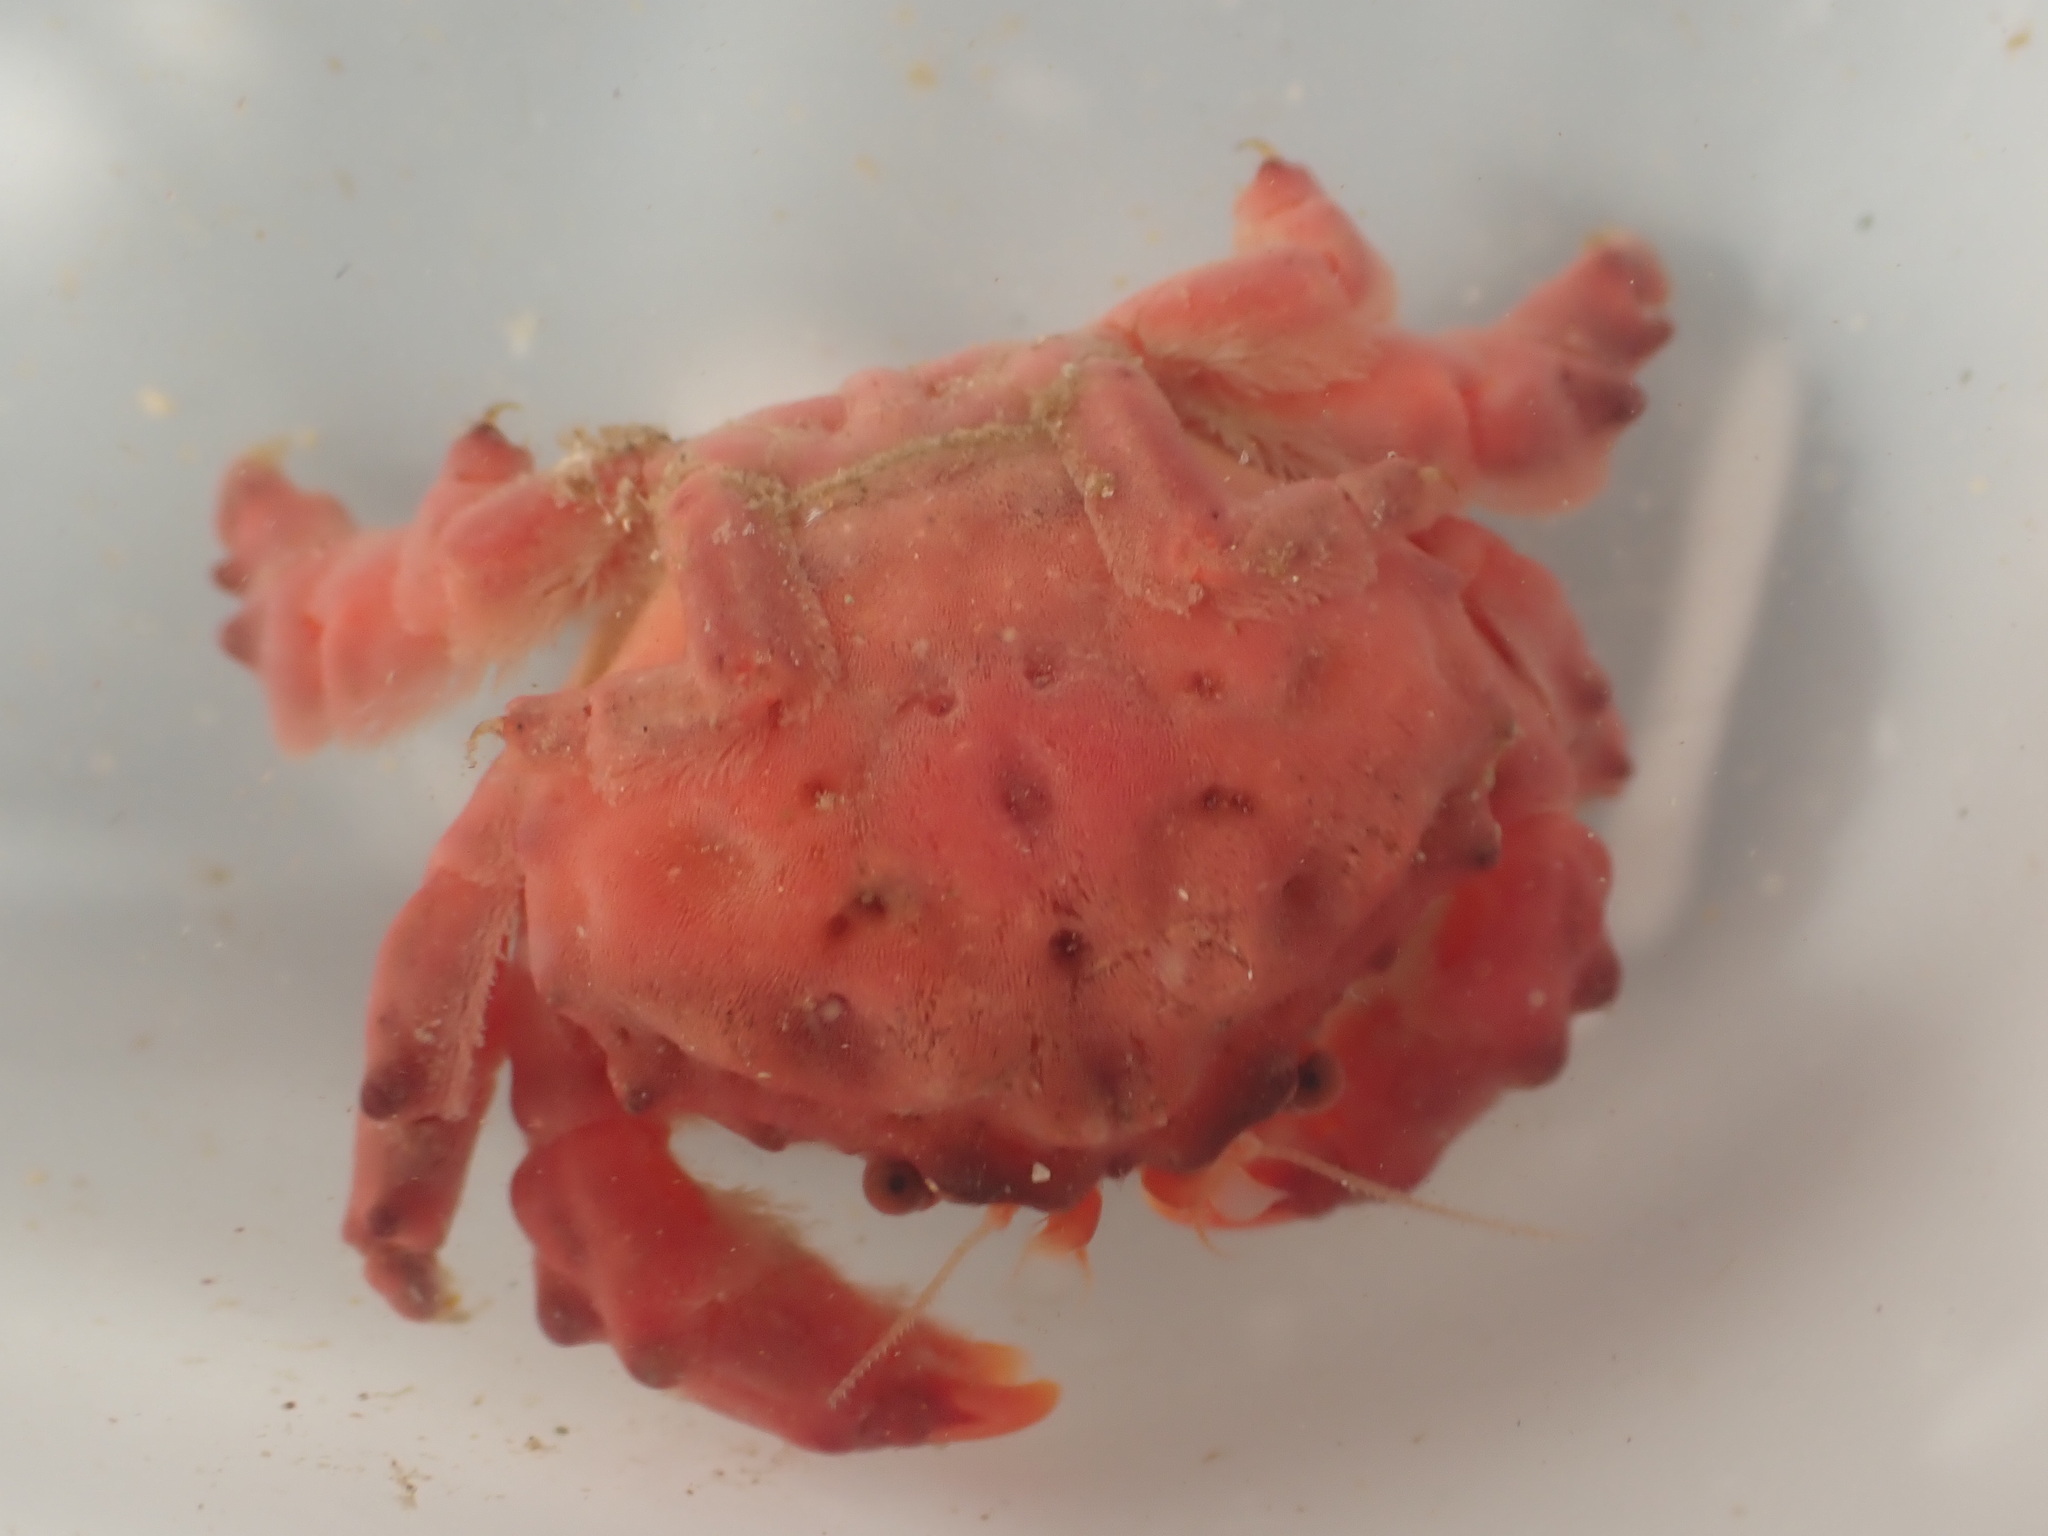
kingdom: Animalia
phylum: Arthropoda
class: Malacostraca
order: Decapoda
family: Dromiidae
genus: Metadromia
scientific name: Metadromia wilsoni
